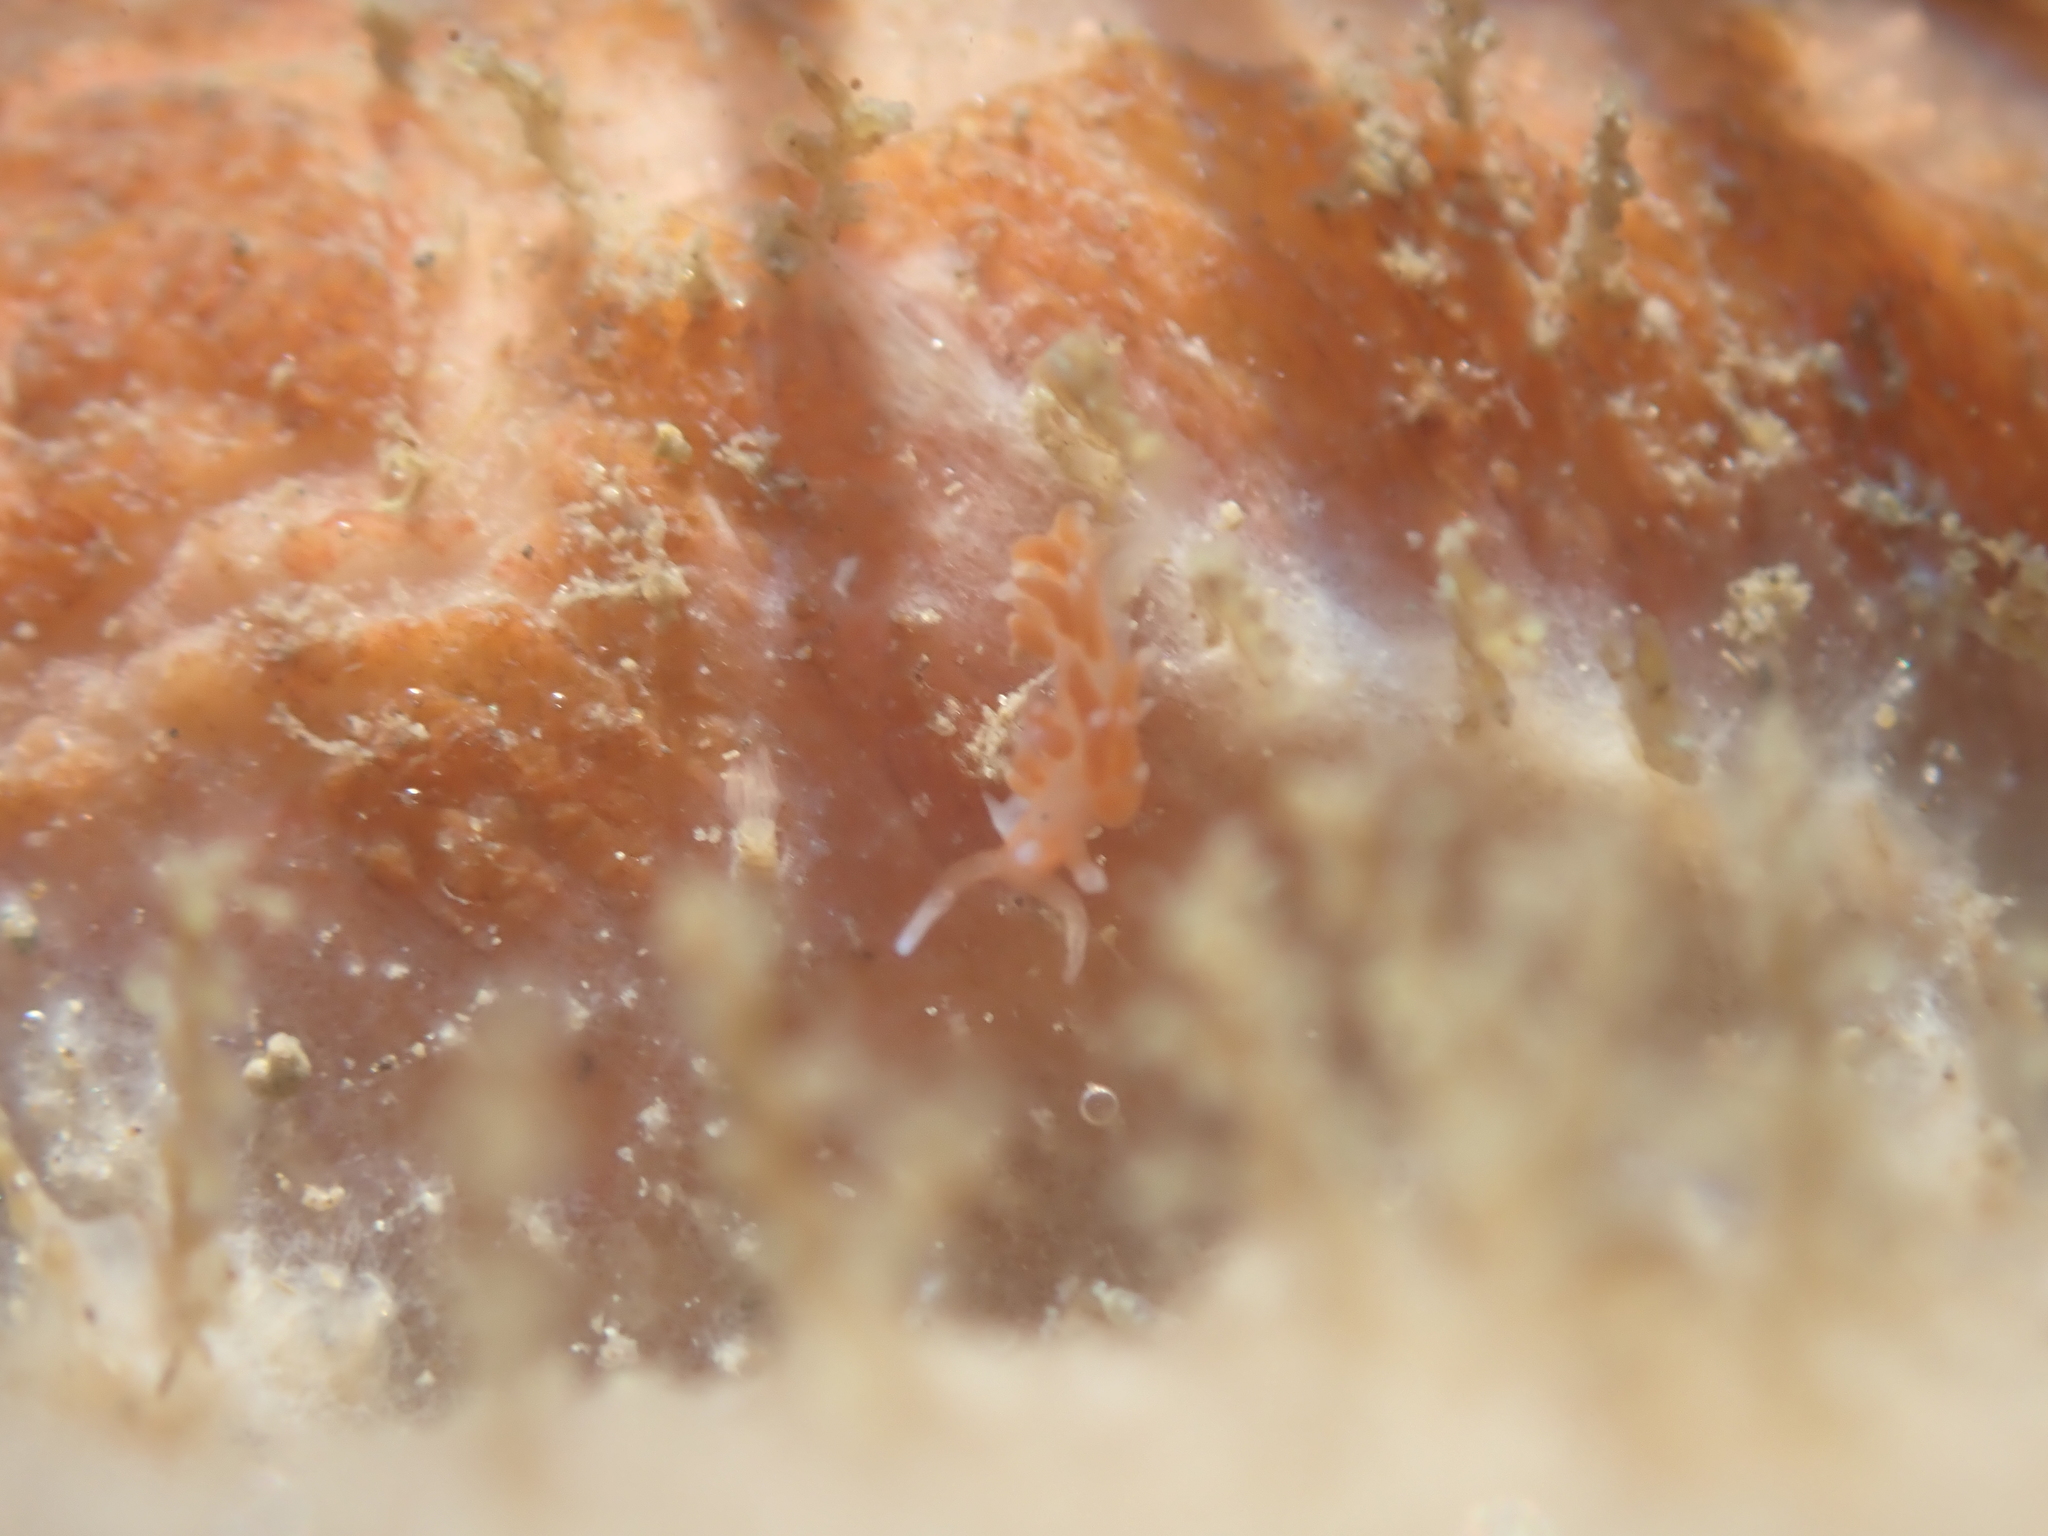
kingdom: Animalia
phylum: Mollusca
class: Gastropoda
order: Nudibranchia
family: Facelinidae
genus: Phidiana
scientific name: Phidiana milleri
